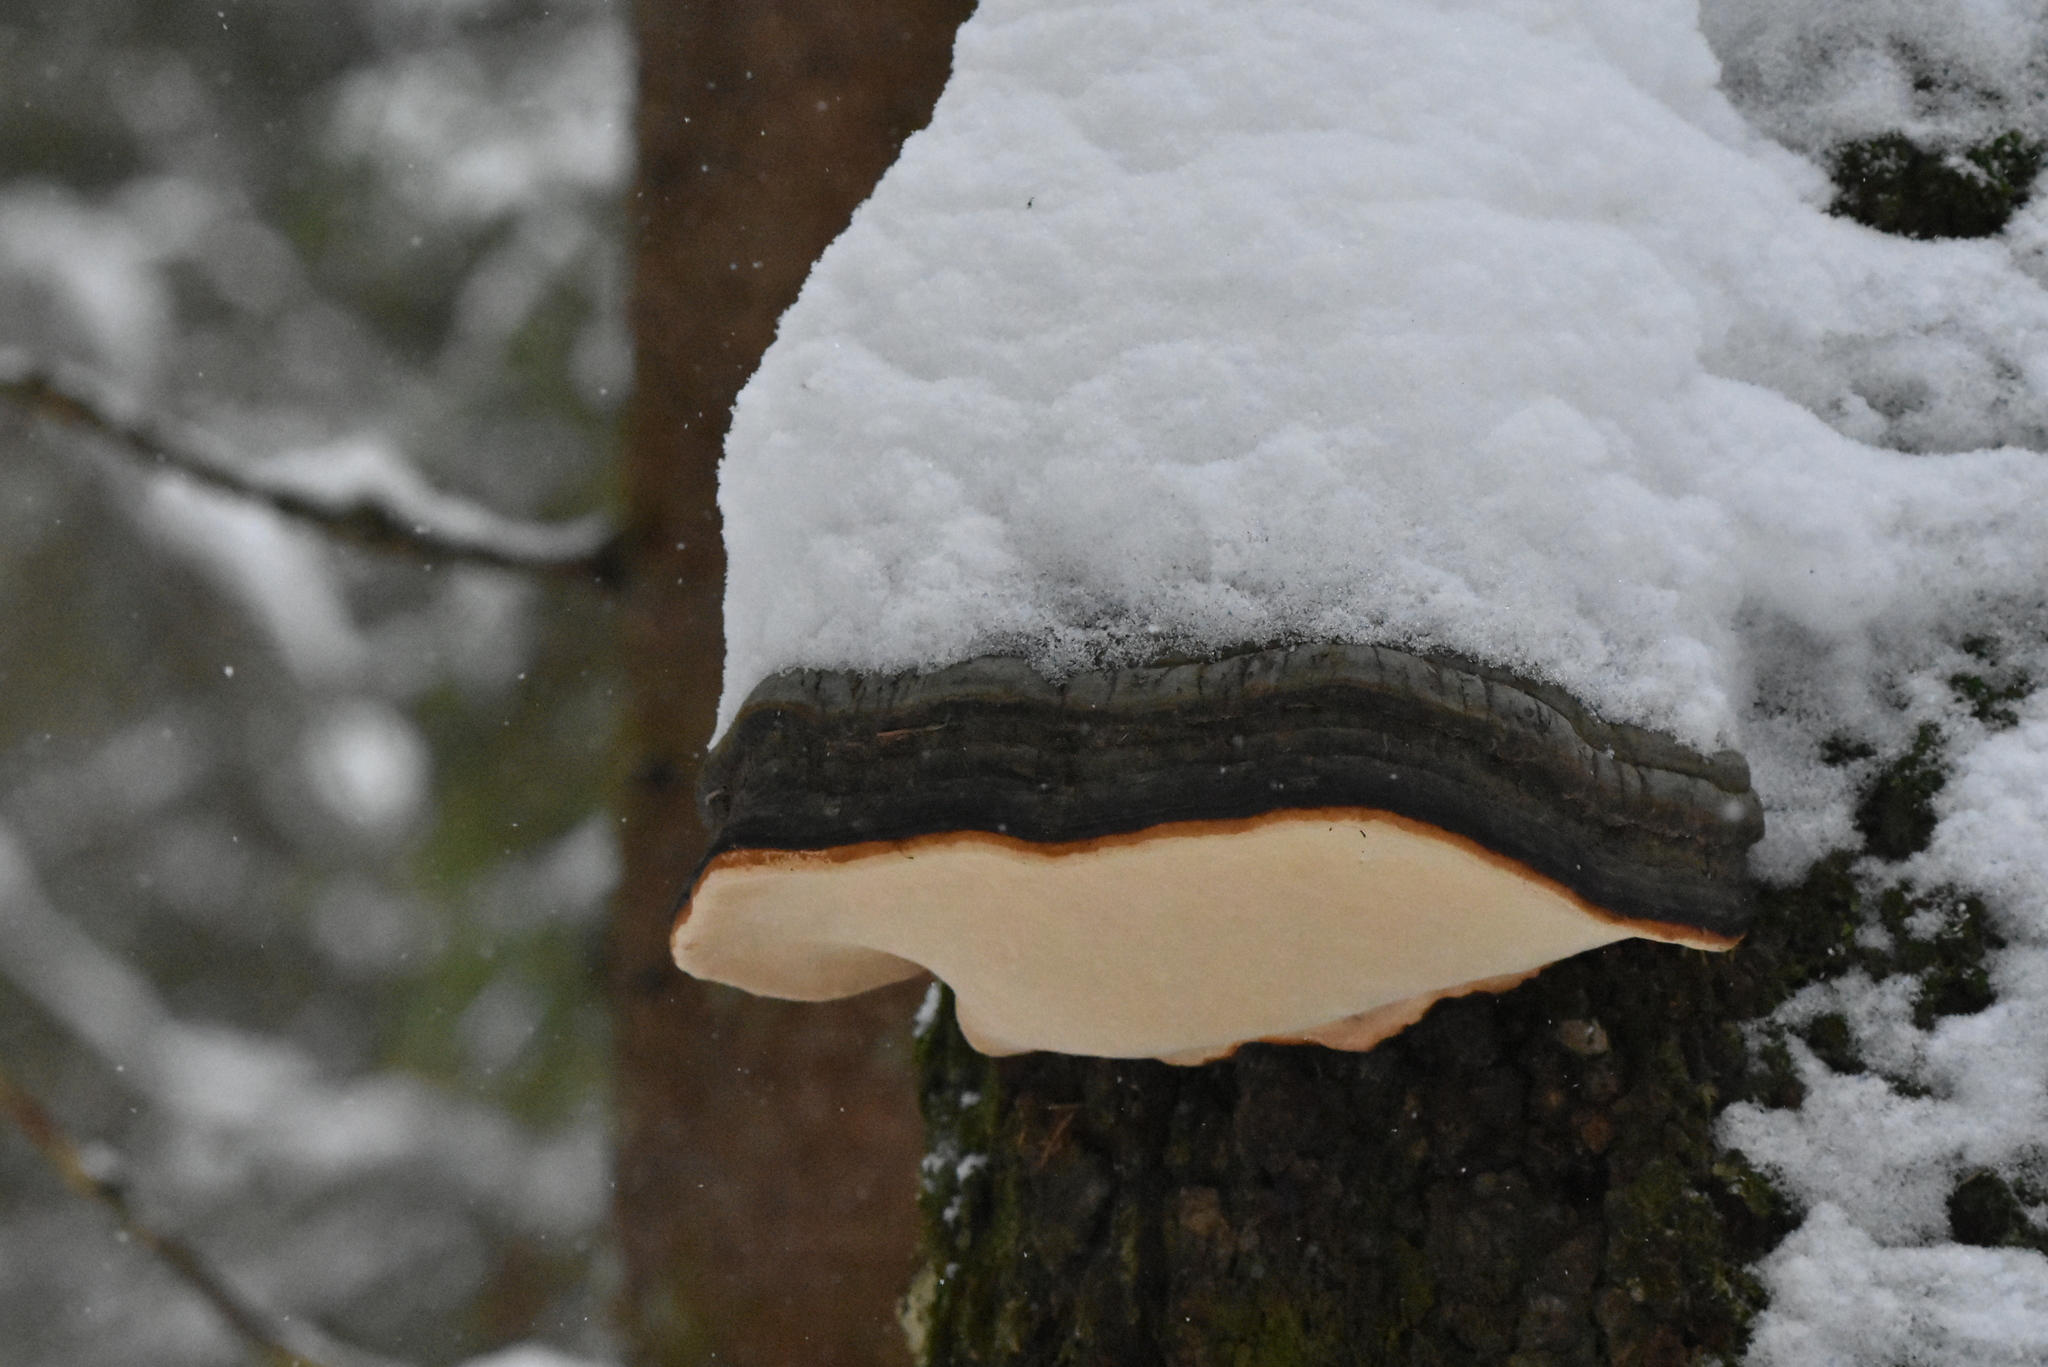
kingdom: Fungi
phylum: Basidiomycota
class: Agaricomycetes
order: Polyporales
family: Fomitopsidaceae
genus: Fomitopsis
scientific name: Fomitopsis pinicola
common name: Red-belted bracket
